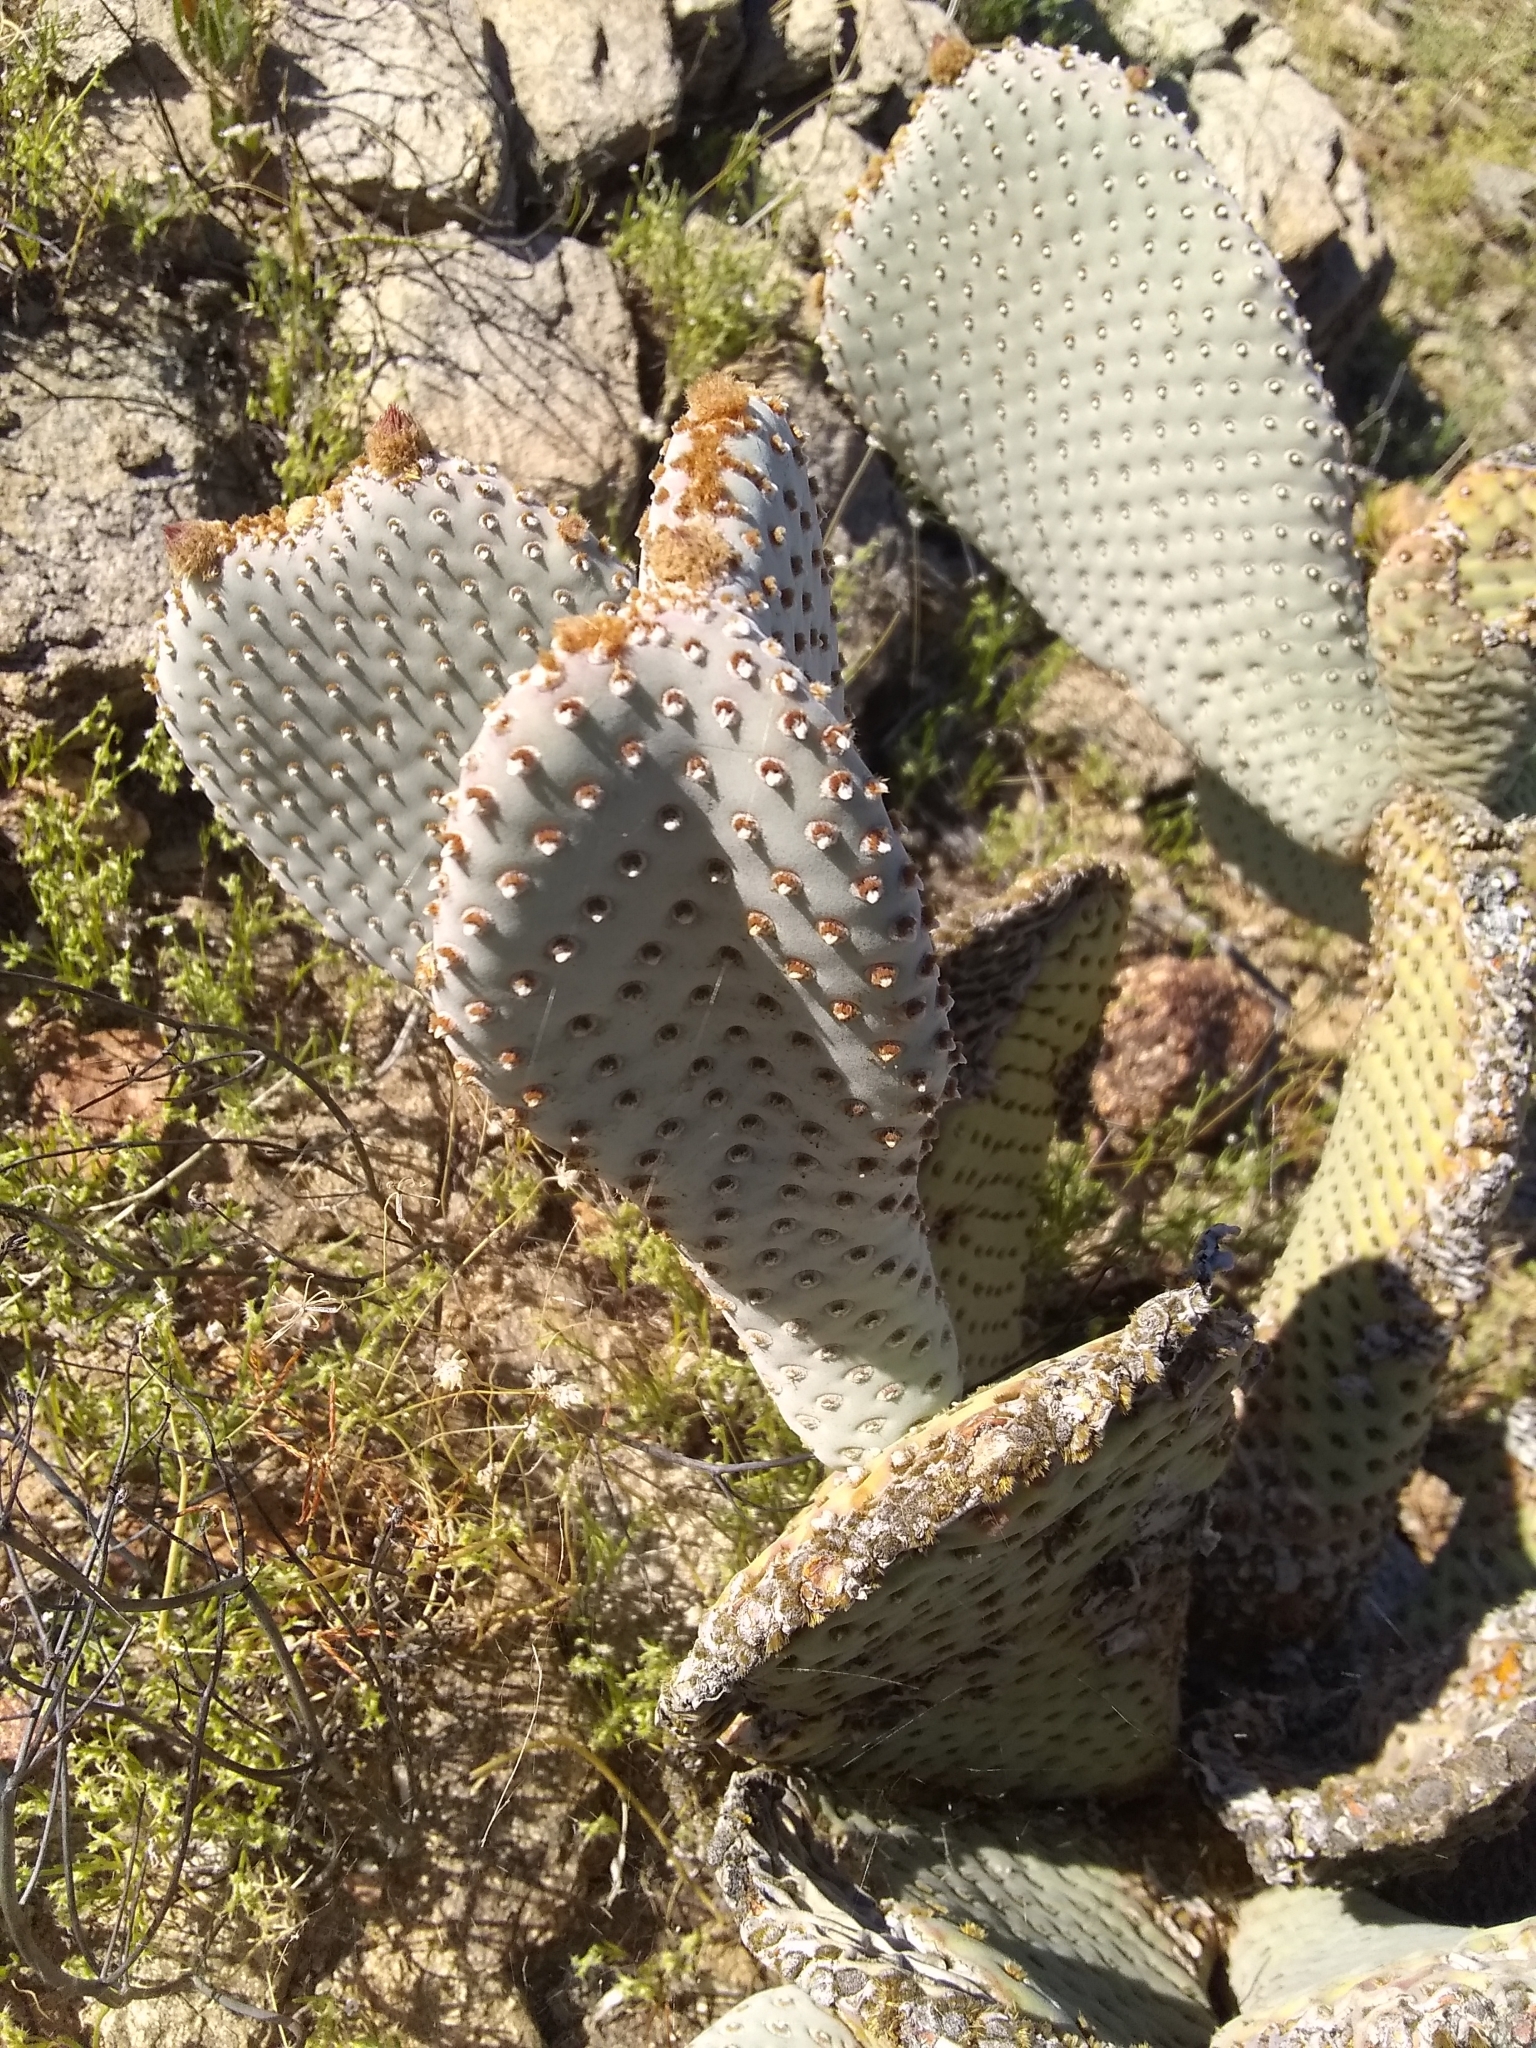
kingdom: Plantae
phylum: Tracheophyta
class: Magnoliopsida
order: Caryophyllales
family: Cactaceae
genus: Opuntia
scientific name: Opuntia basilaris
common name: Beavertail prickly-pear
